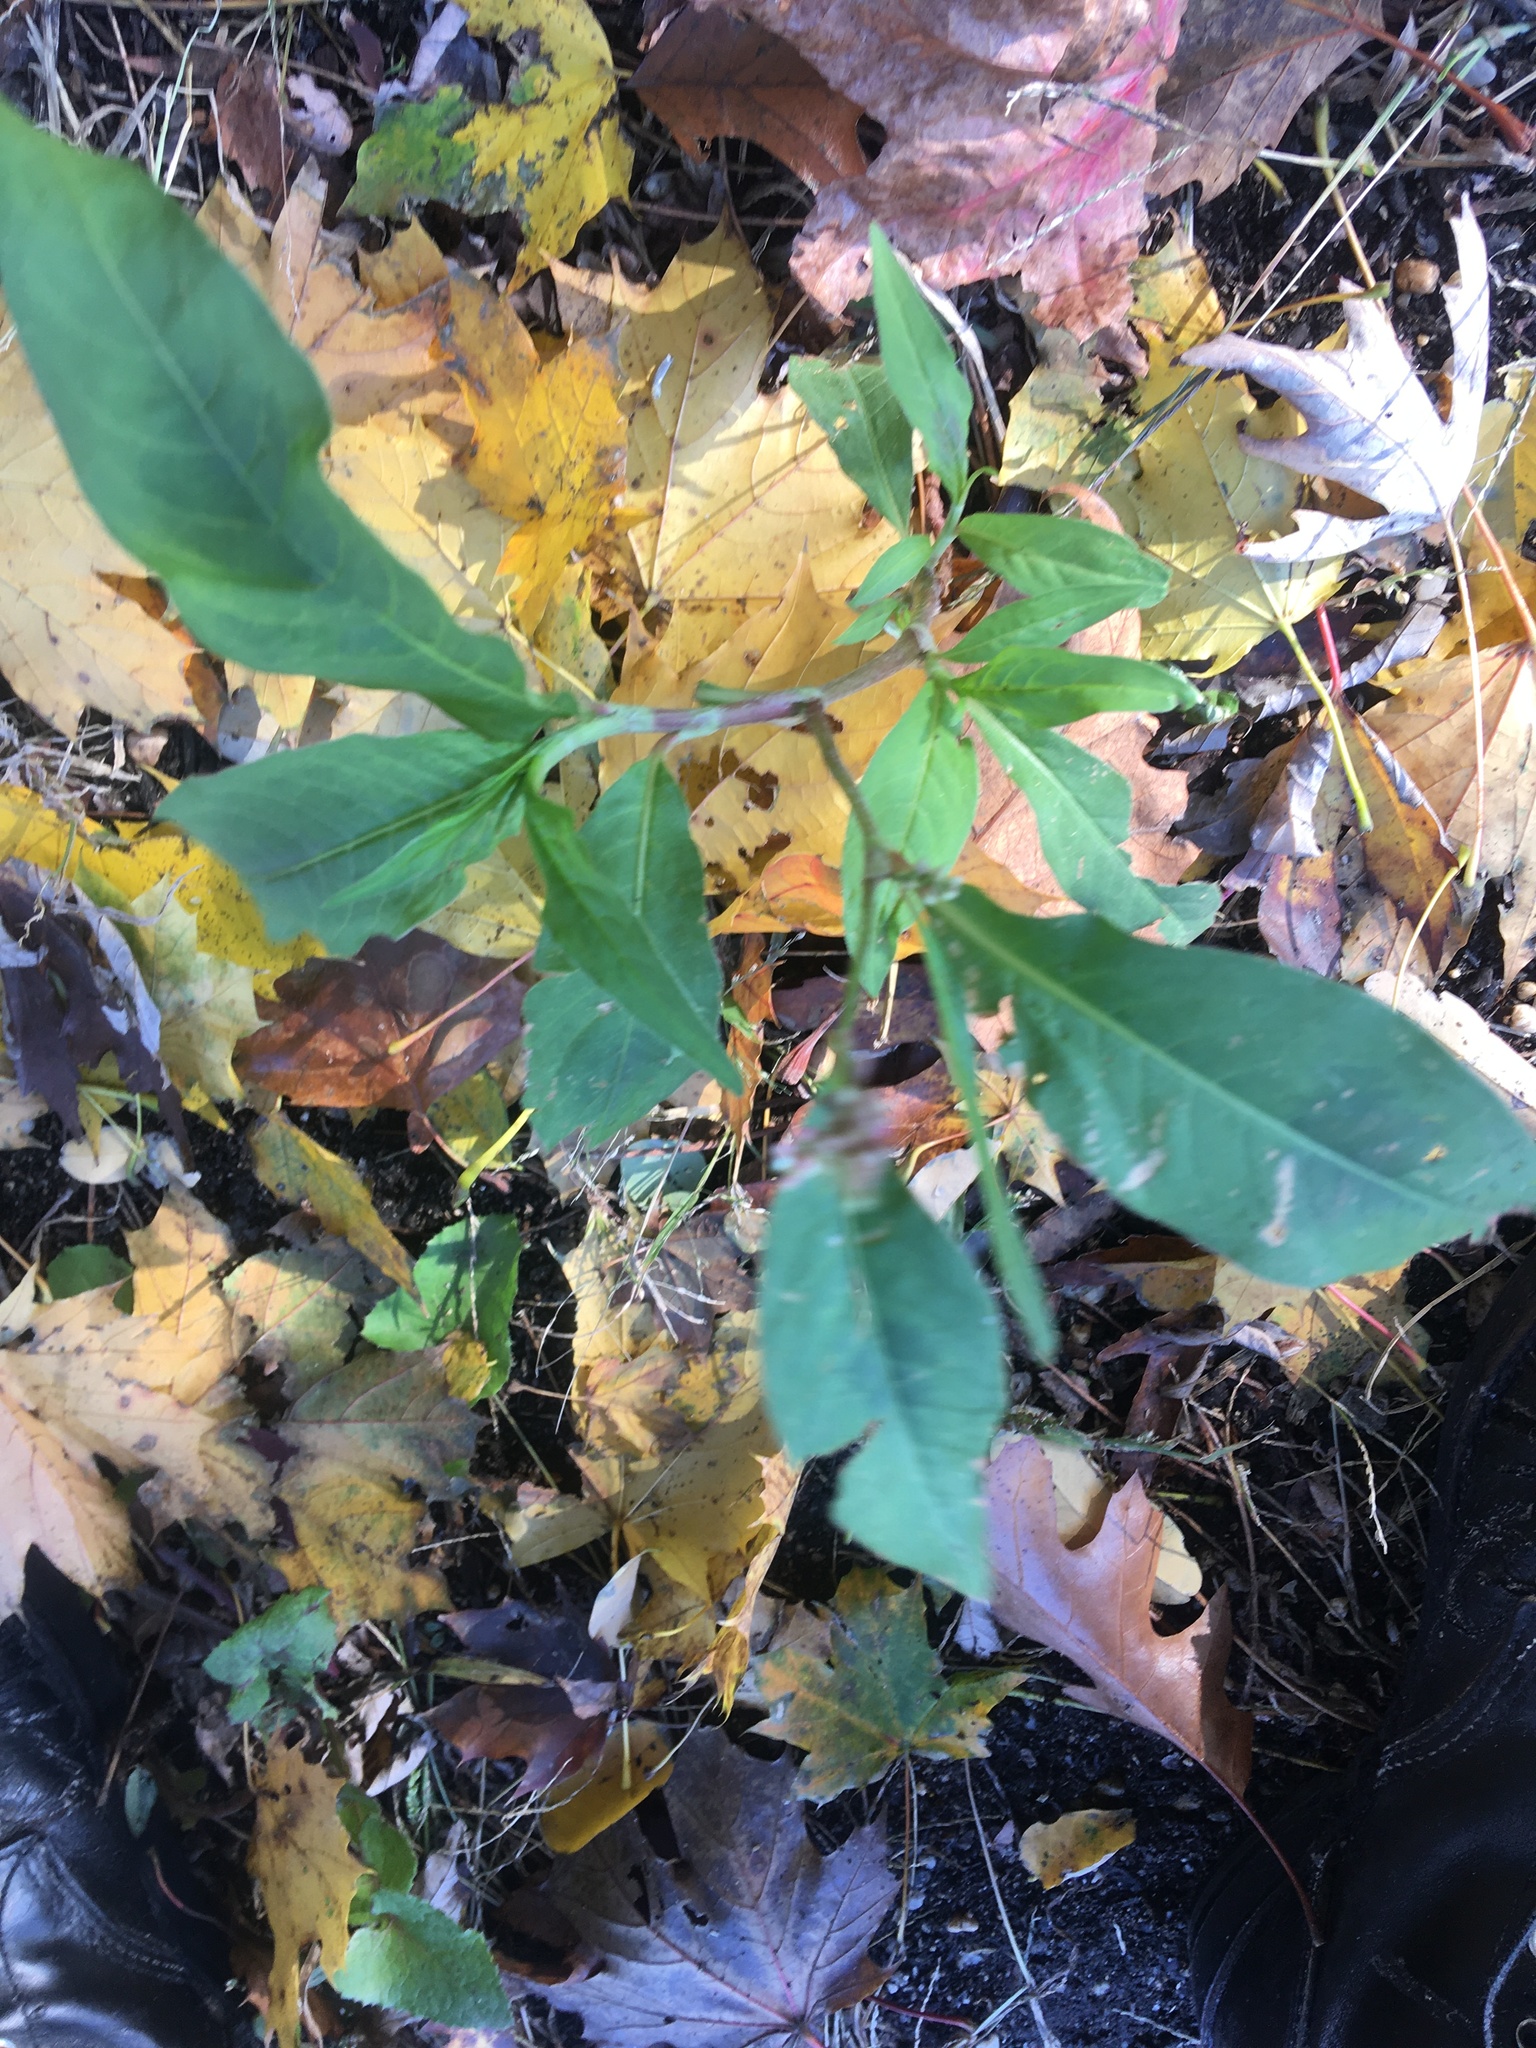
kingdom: Plantae
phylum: Tracheophyta
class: Magnoliopsida
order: Caryophyllales
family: Polygonaceae
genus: Persicaria
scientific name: Persicaria extremiorientalis
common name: Far-eastern smartweed
